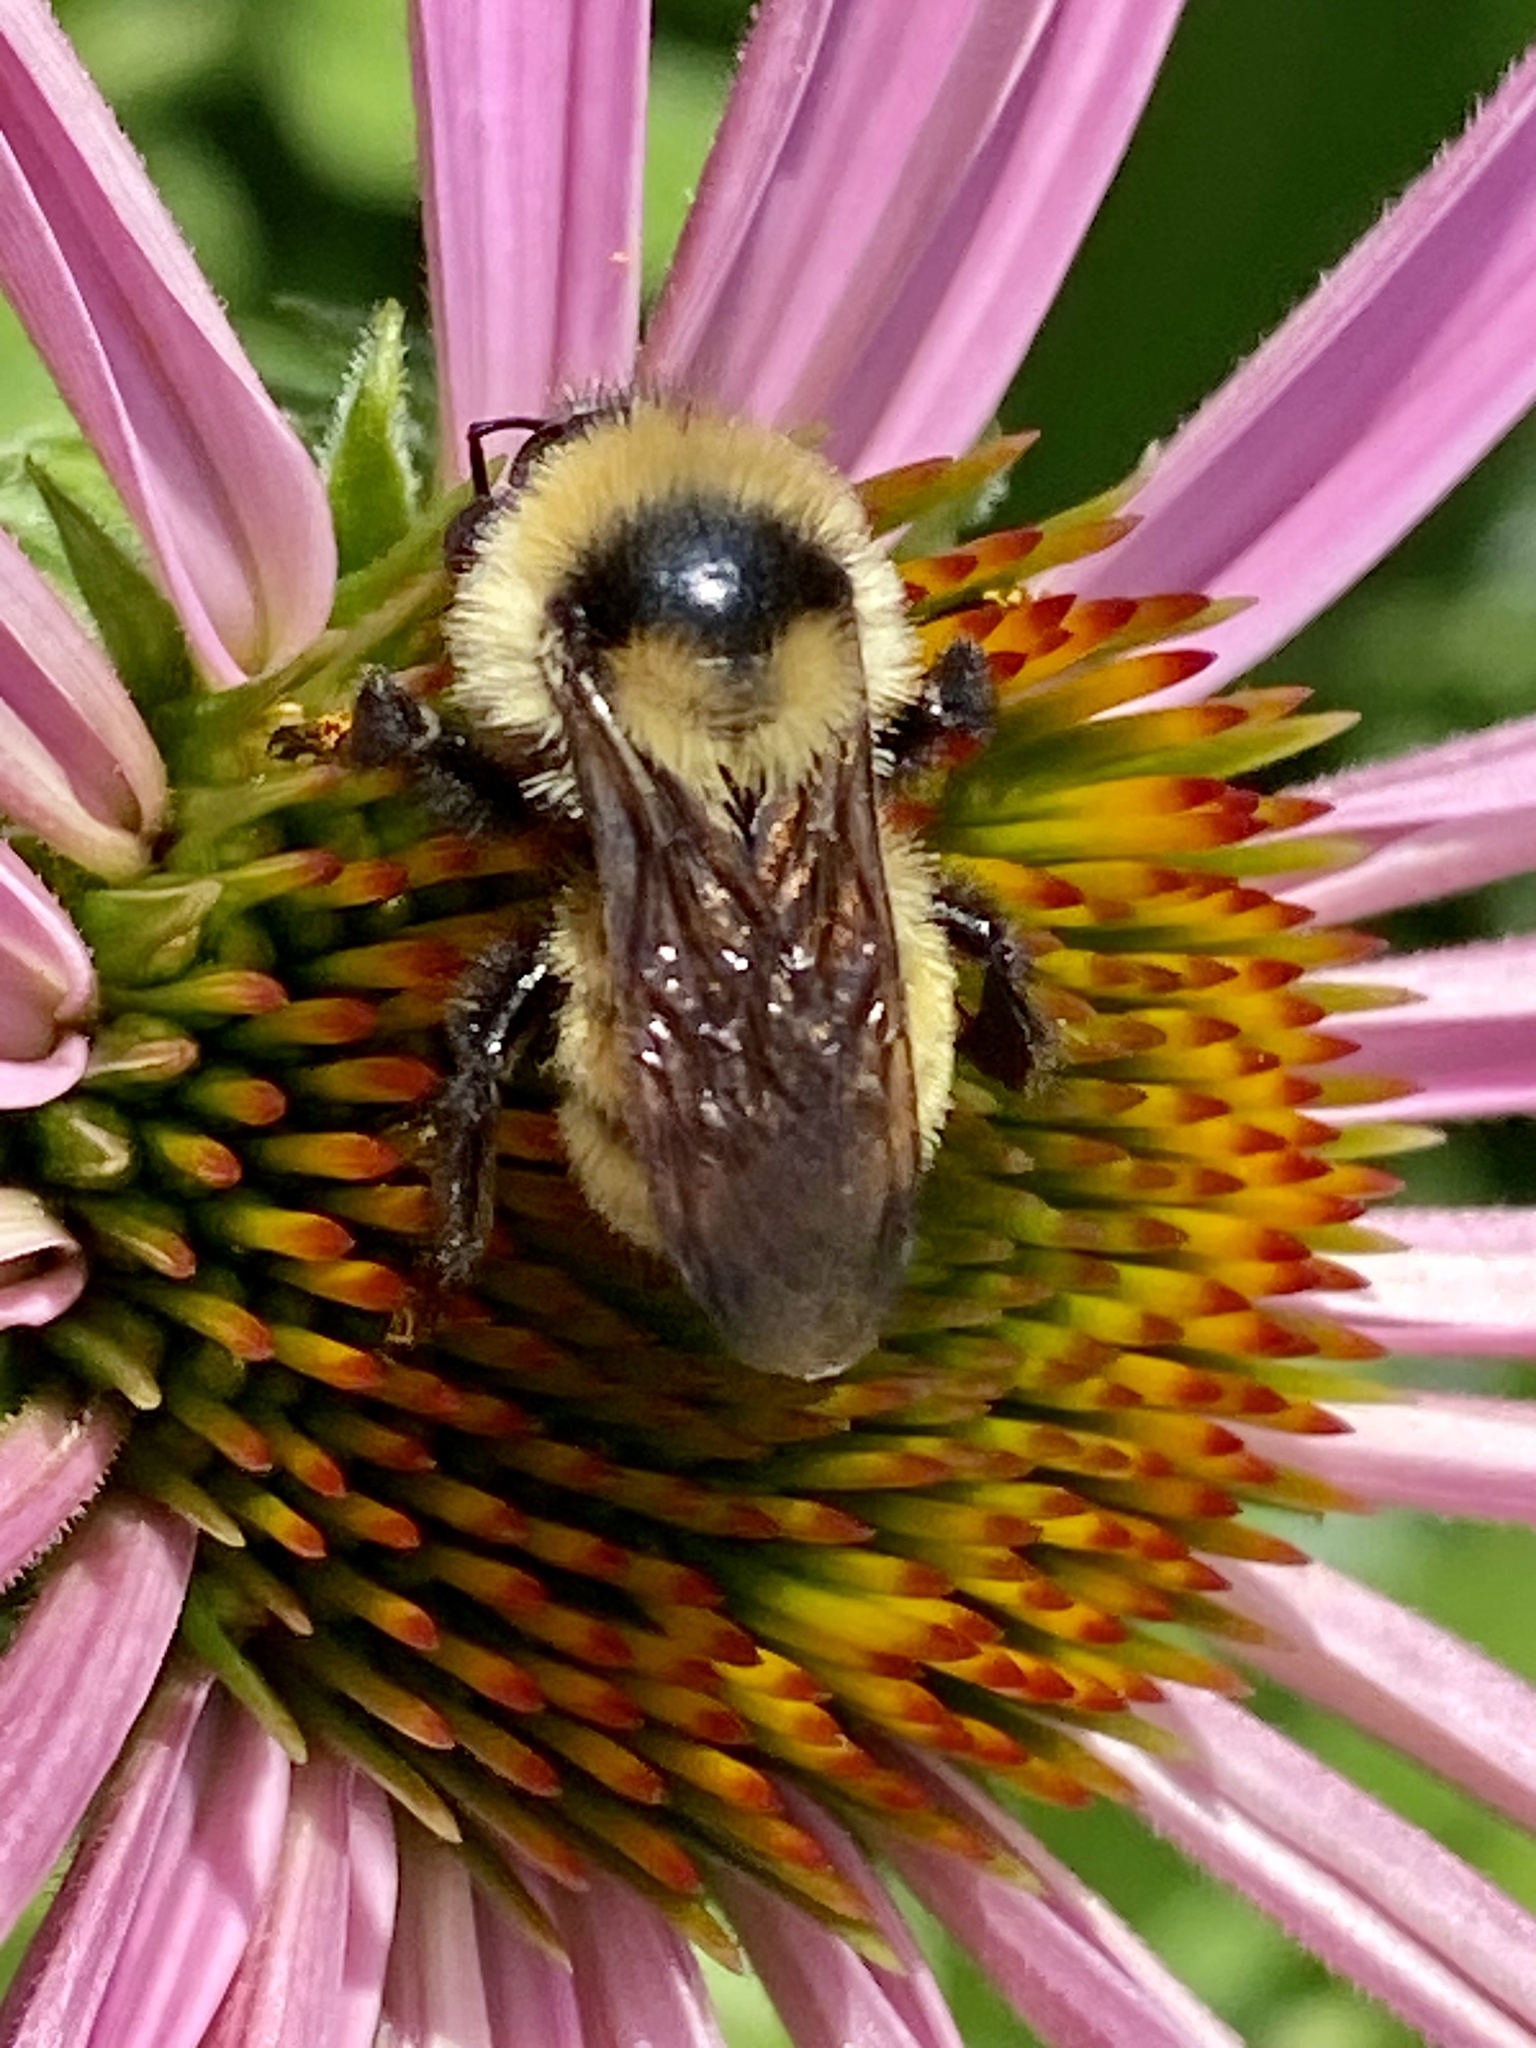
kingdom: Animalia
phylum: Arthropoda
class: Insecta
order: Hymenoptera
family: Apidae
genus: Bombus
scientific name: Bombus fervidus
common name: Yellow bumble bee
